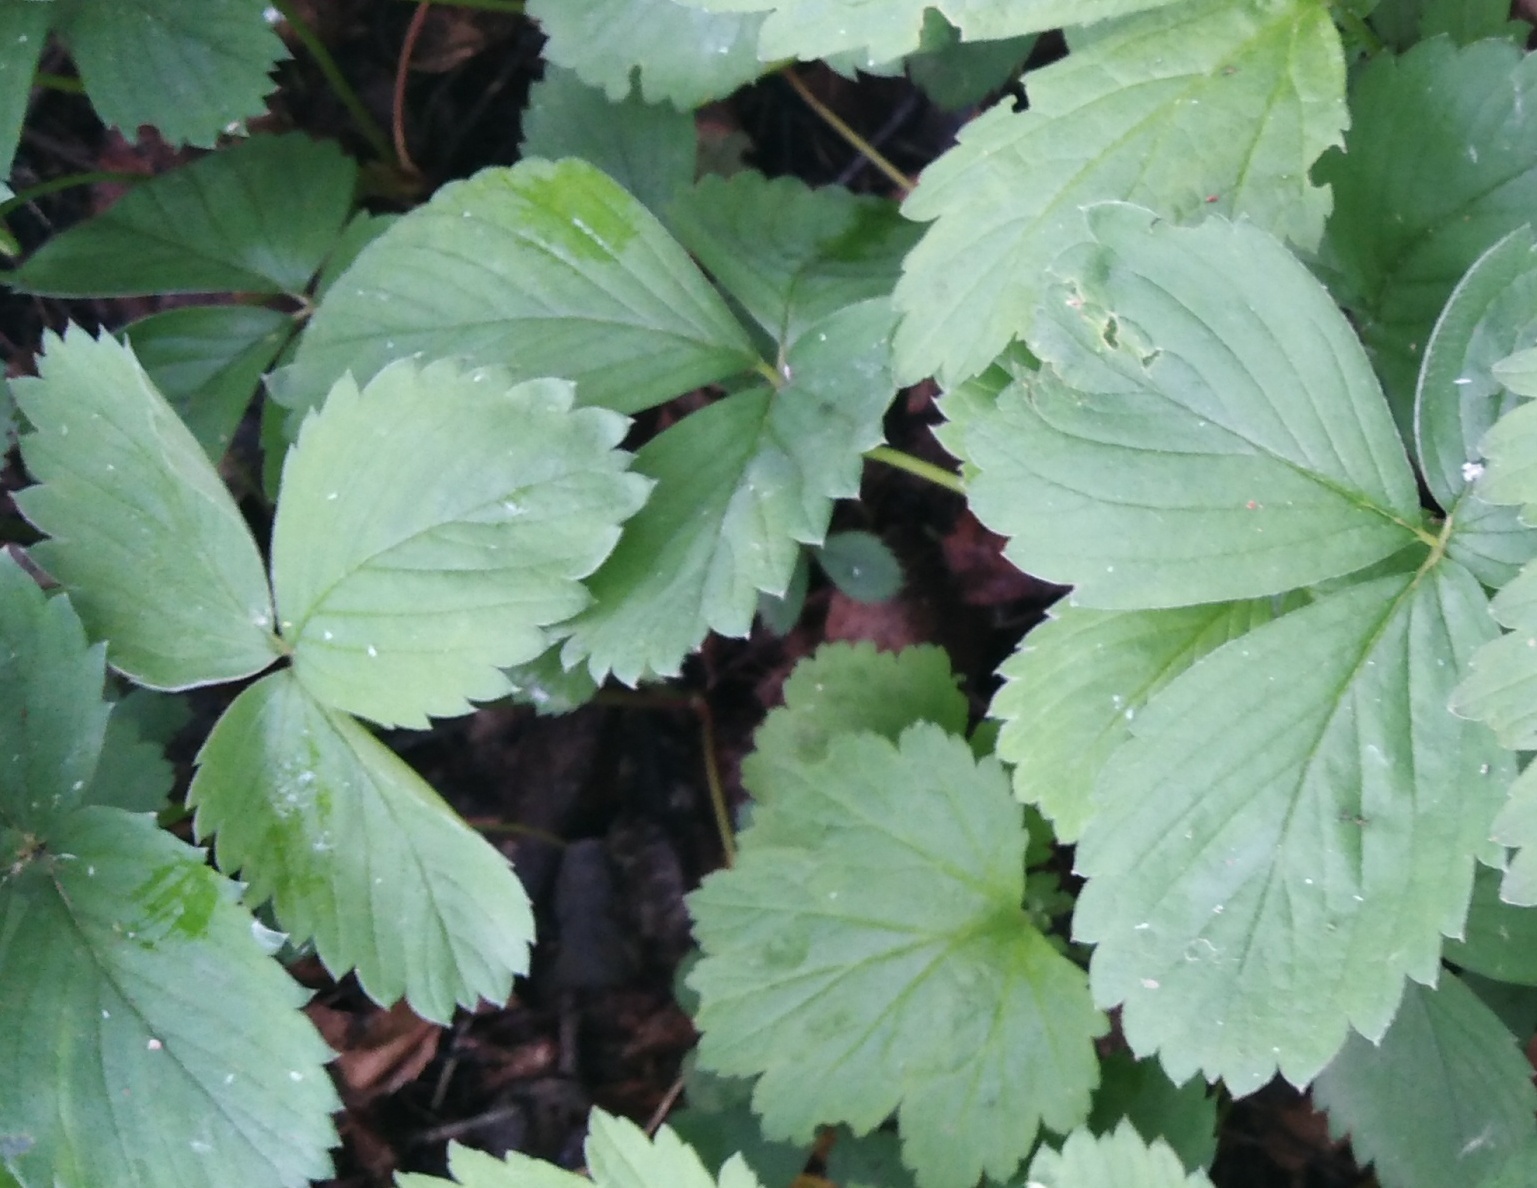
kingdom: Plantae
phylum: Tracheophyta
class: Magnoliopsida
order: Rosales
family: Rosaceae
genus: Fragaria
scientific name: Fragaria ananassa
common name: Garden strawberry
